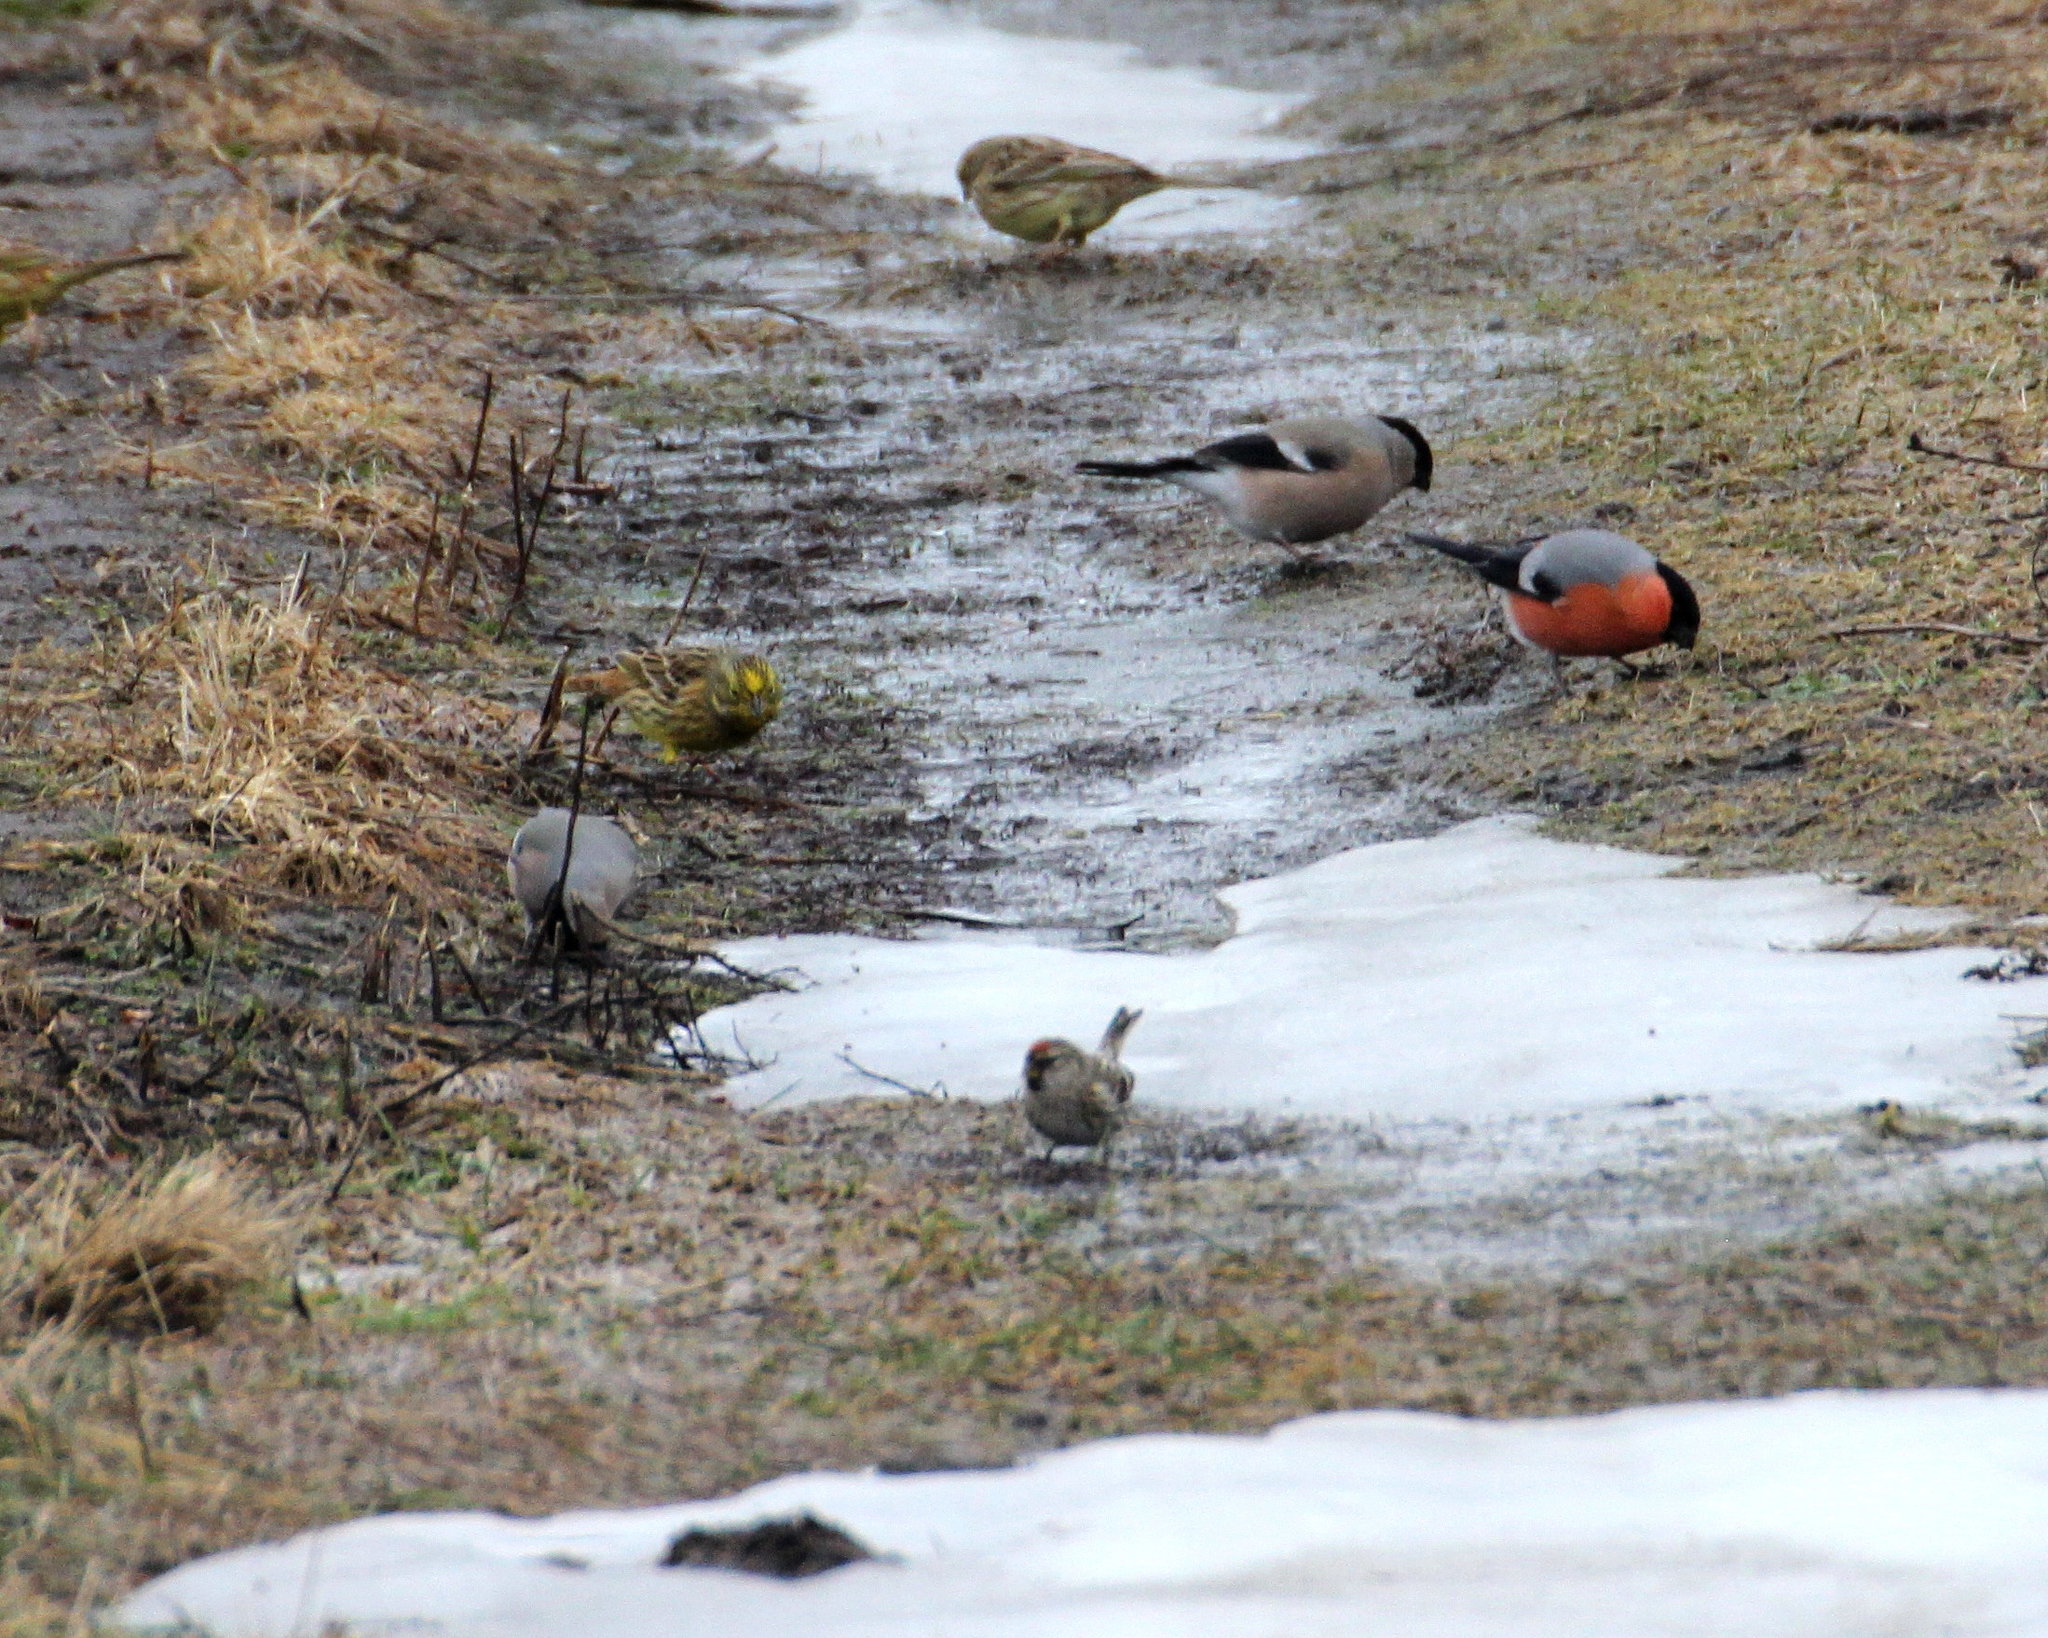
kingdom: Animalia
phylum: Chordata
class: Aves
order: Passeriformes
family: Fringillidae
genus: Acanthis
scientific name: Acanthis flammea
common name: Common redpoll
